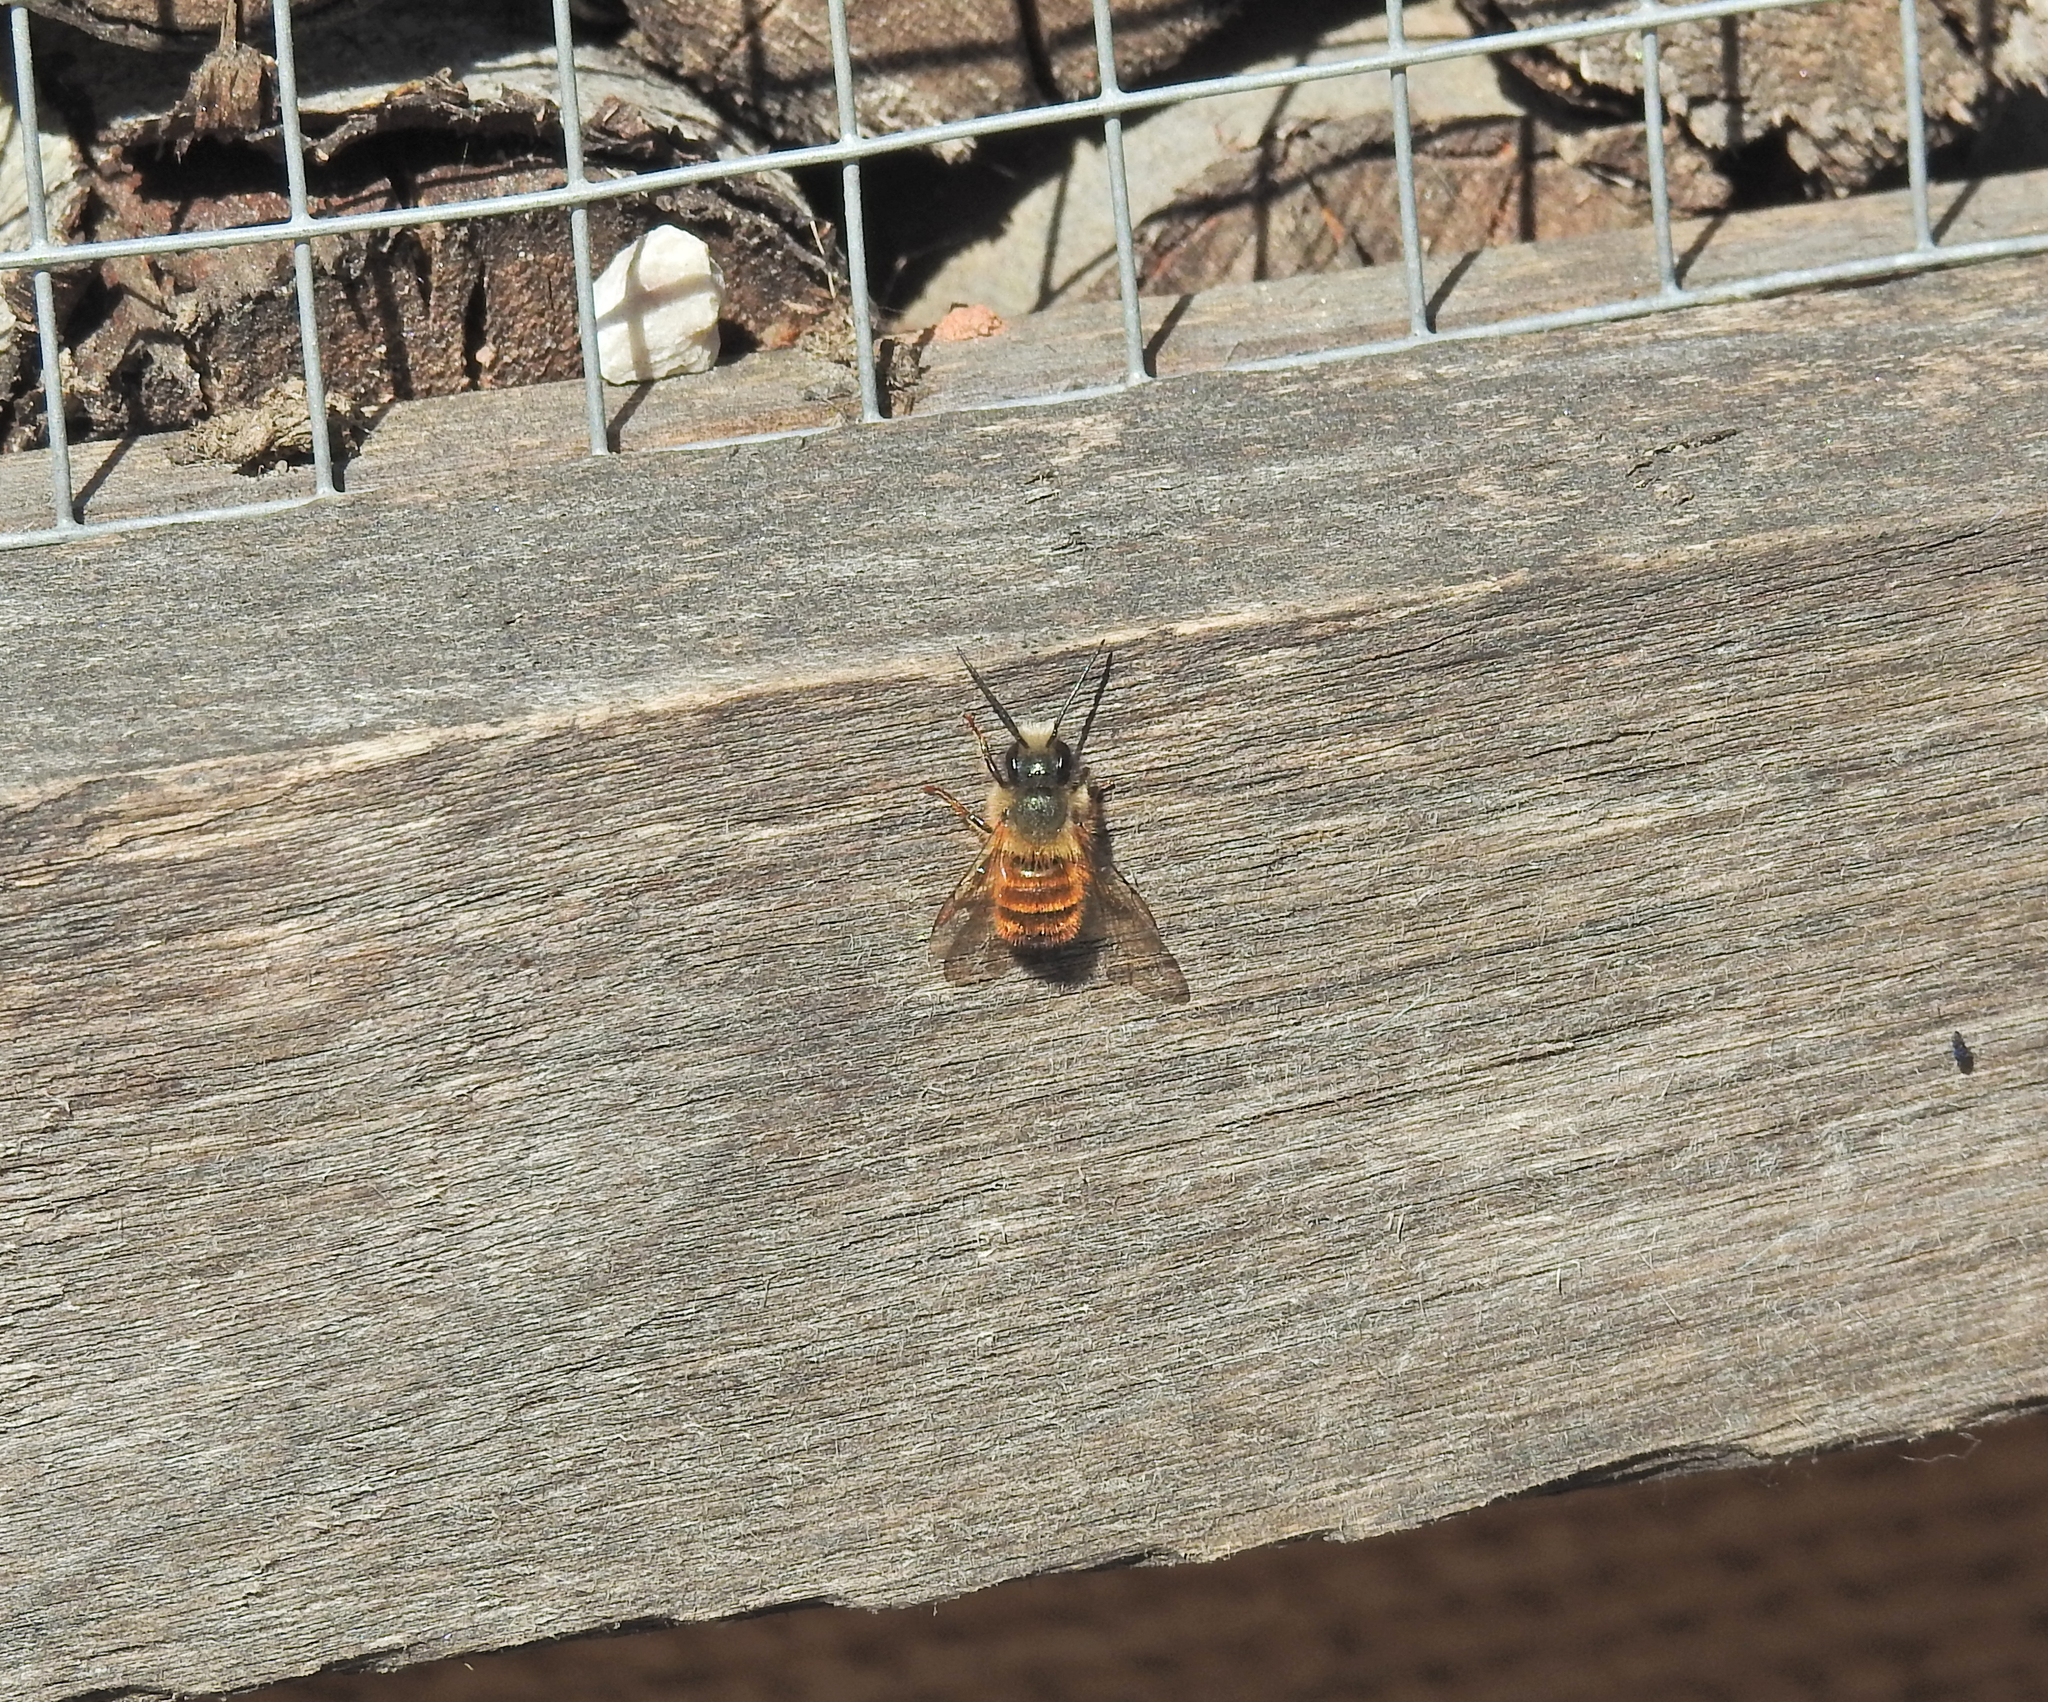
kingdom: Animalia
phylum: Arthropoda
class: Insecta
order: Hymenoptera
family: Megachilidae
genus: Osmia
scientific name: Osmia bicornis
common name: Red mason bee
